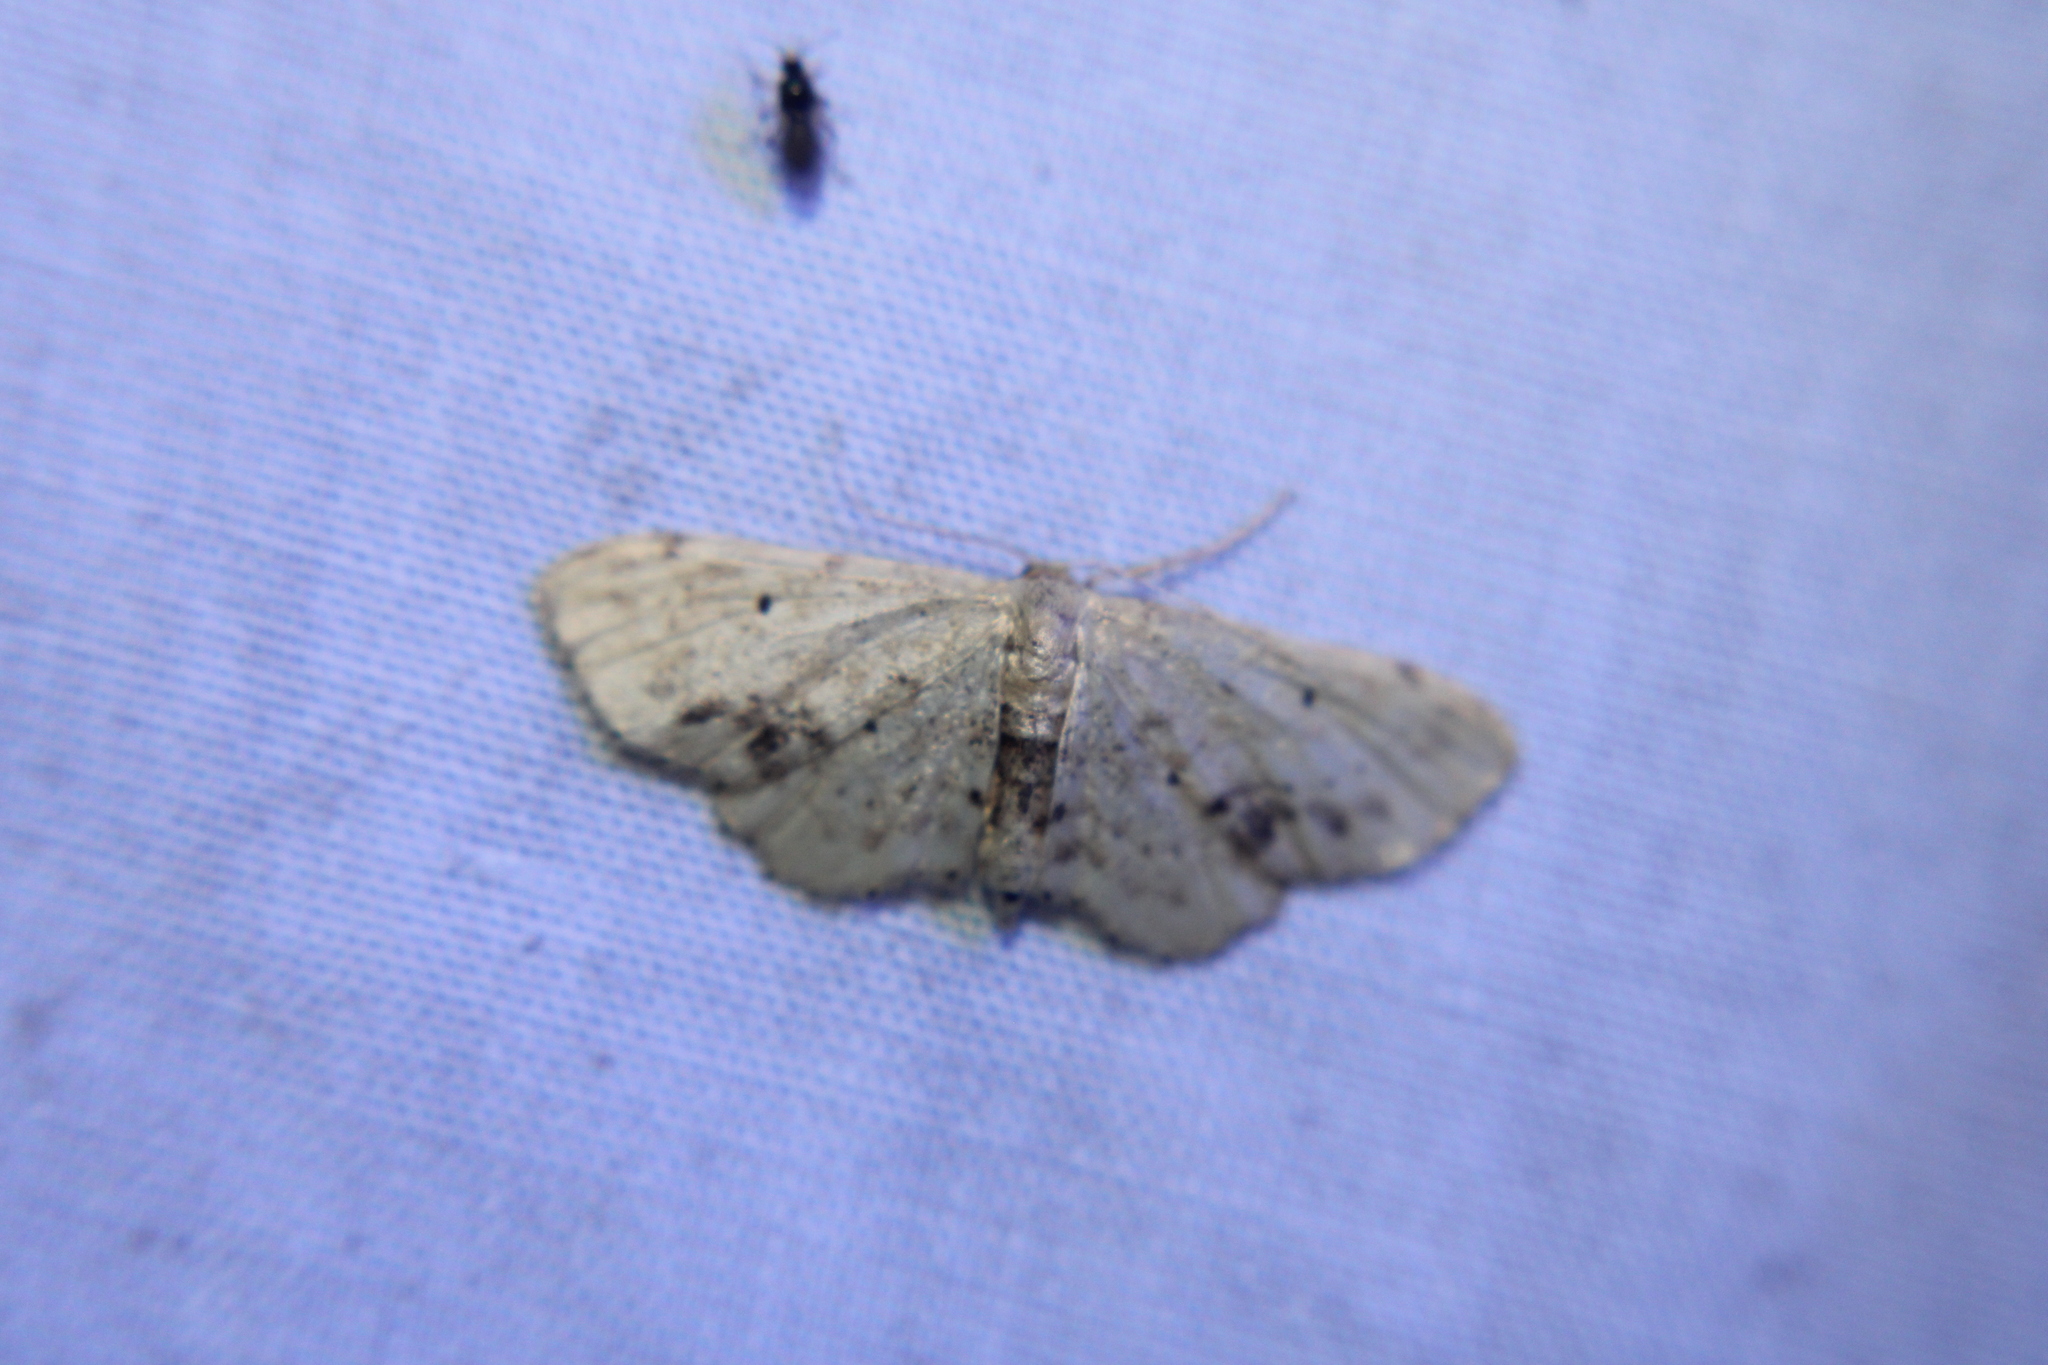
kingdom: Animalia
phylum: Arthropoda
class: Insecta
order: Lepidoptera
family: Geometridae
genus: Idaea
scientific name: Idaea dimidiata
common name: Single-dotted wave
